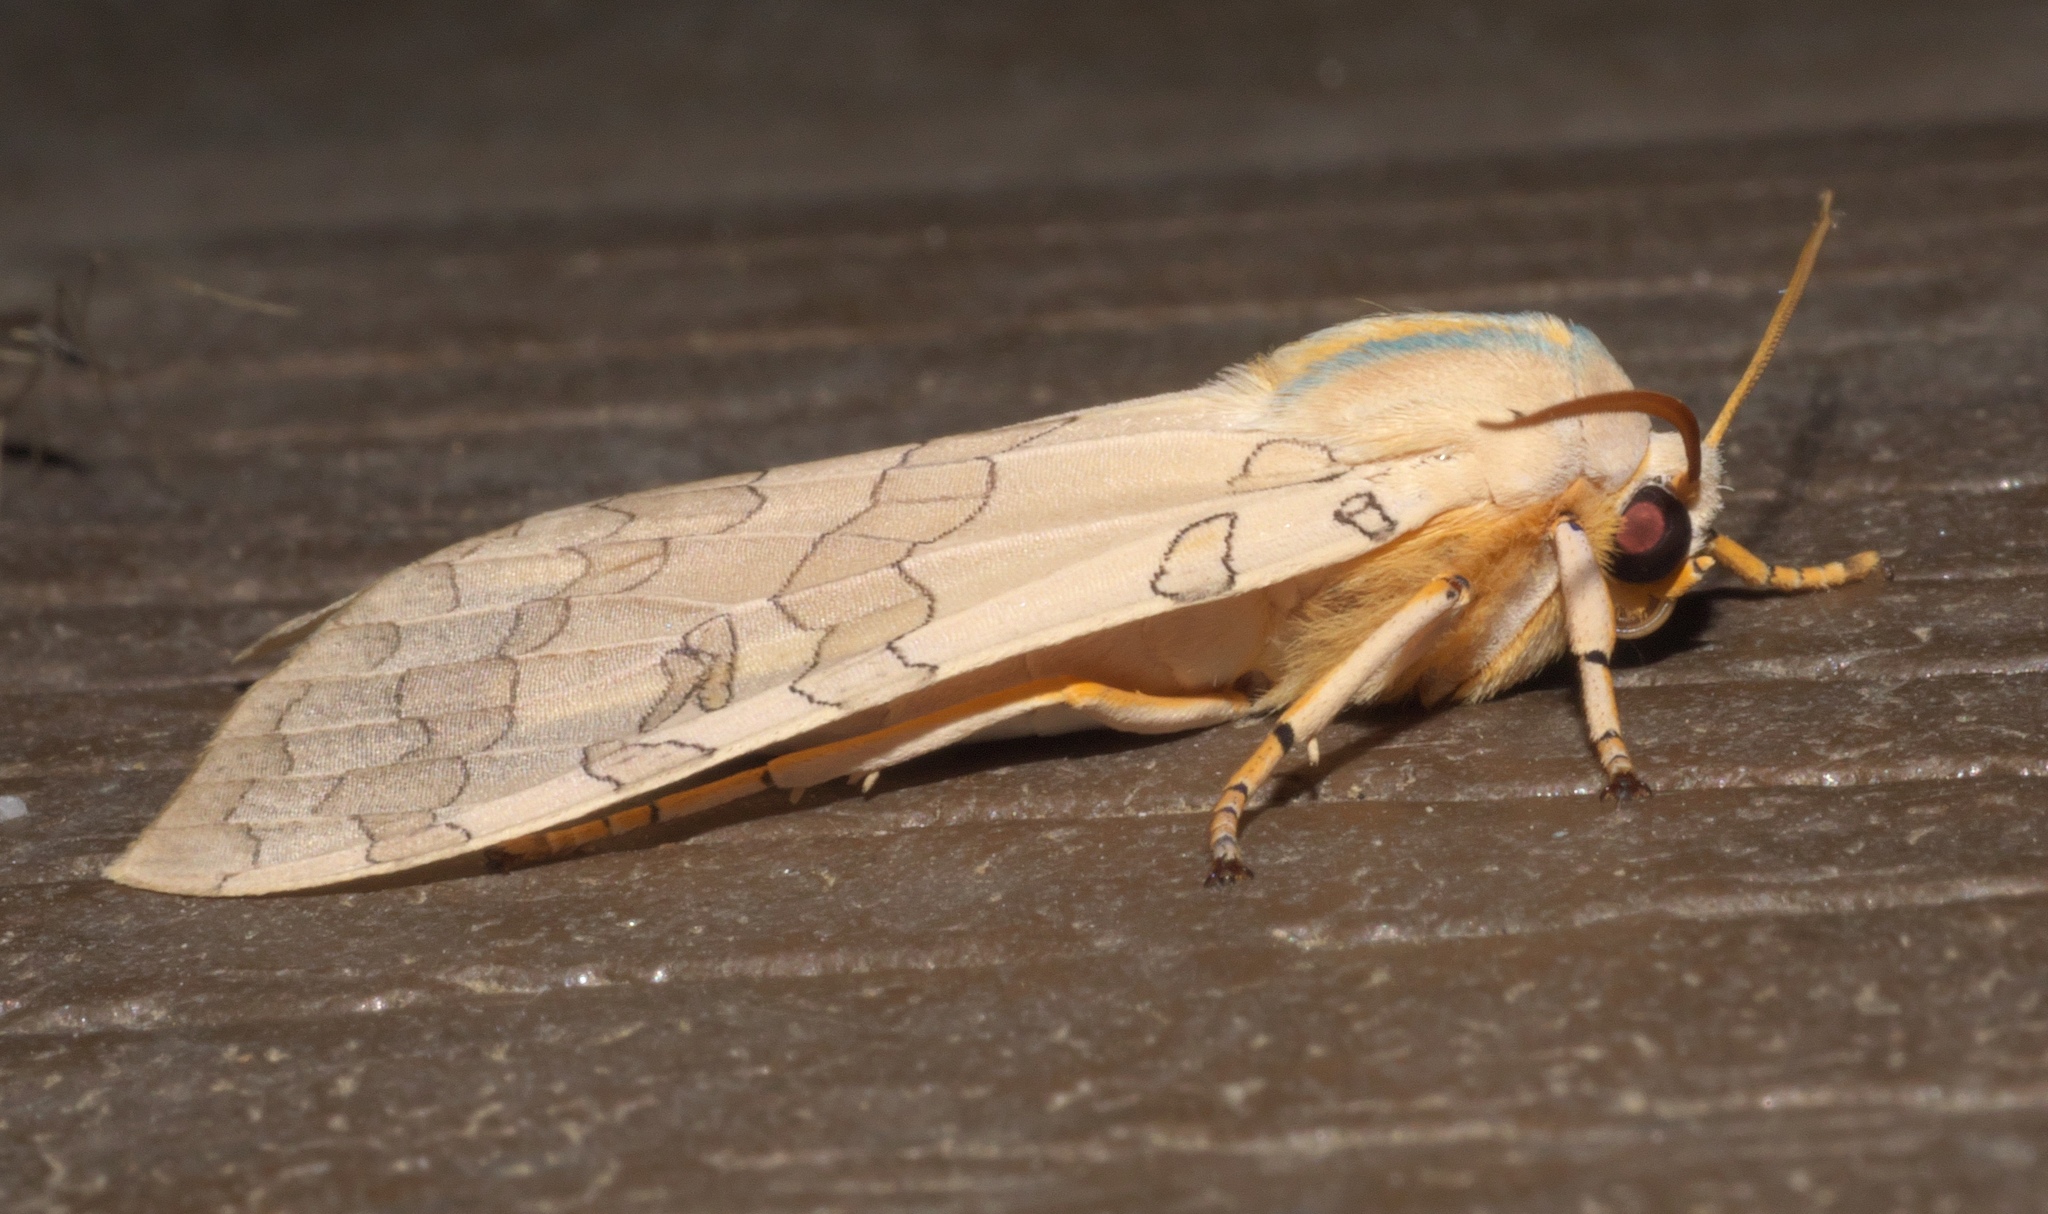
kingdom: Animalia
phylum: Arthropoda
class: Insecta
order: Lepidoptera
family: Erebidae
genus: Halysidota
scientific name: Halysidota
